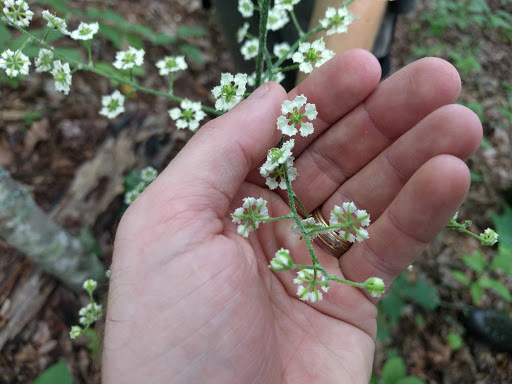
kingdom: Plantae
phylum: Tracheophyta
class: Liliopsida
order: Liliales
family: Melanthiaceae
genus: Veratrum
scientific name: Veratrum hybridum
